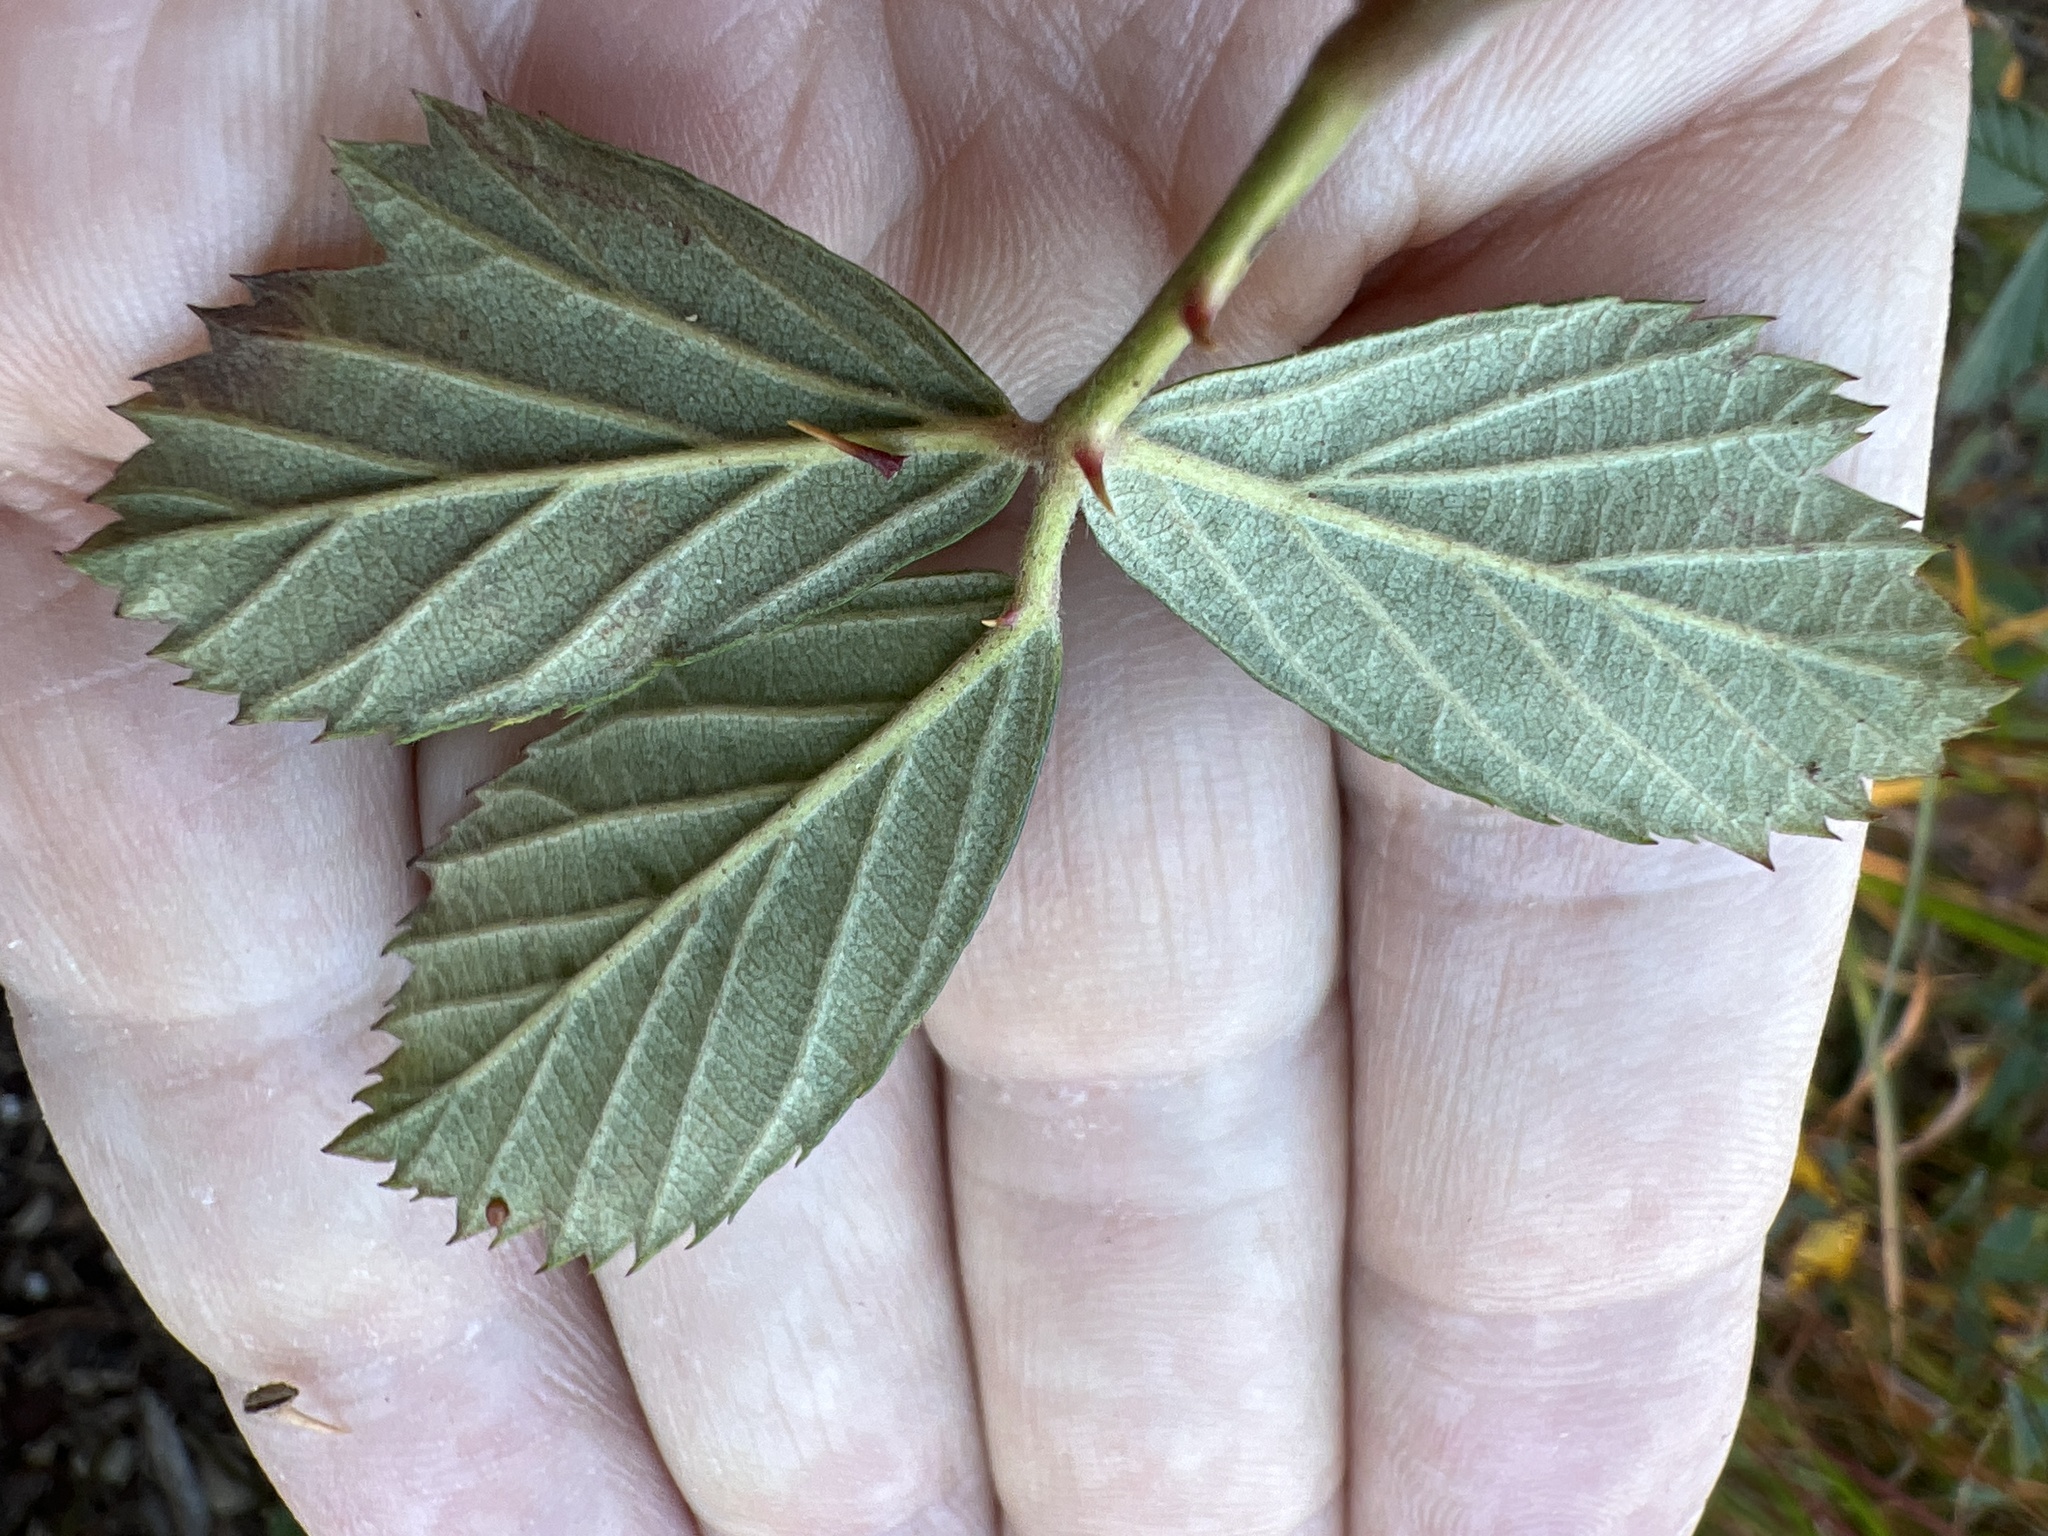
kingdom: Plantae
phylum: Tracheophyta
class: Magnoliopsida
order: Rosales
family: Rosaceae
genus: Rubus
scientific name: Rubus cuneifolius
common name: American bramble
